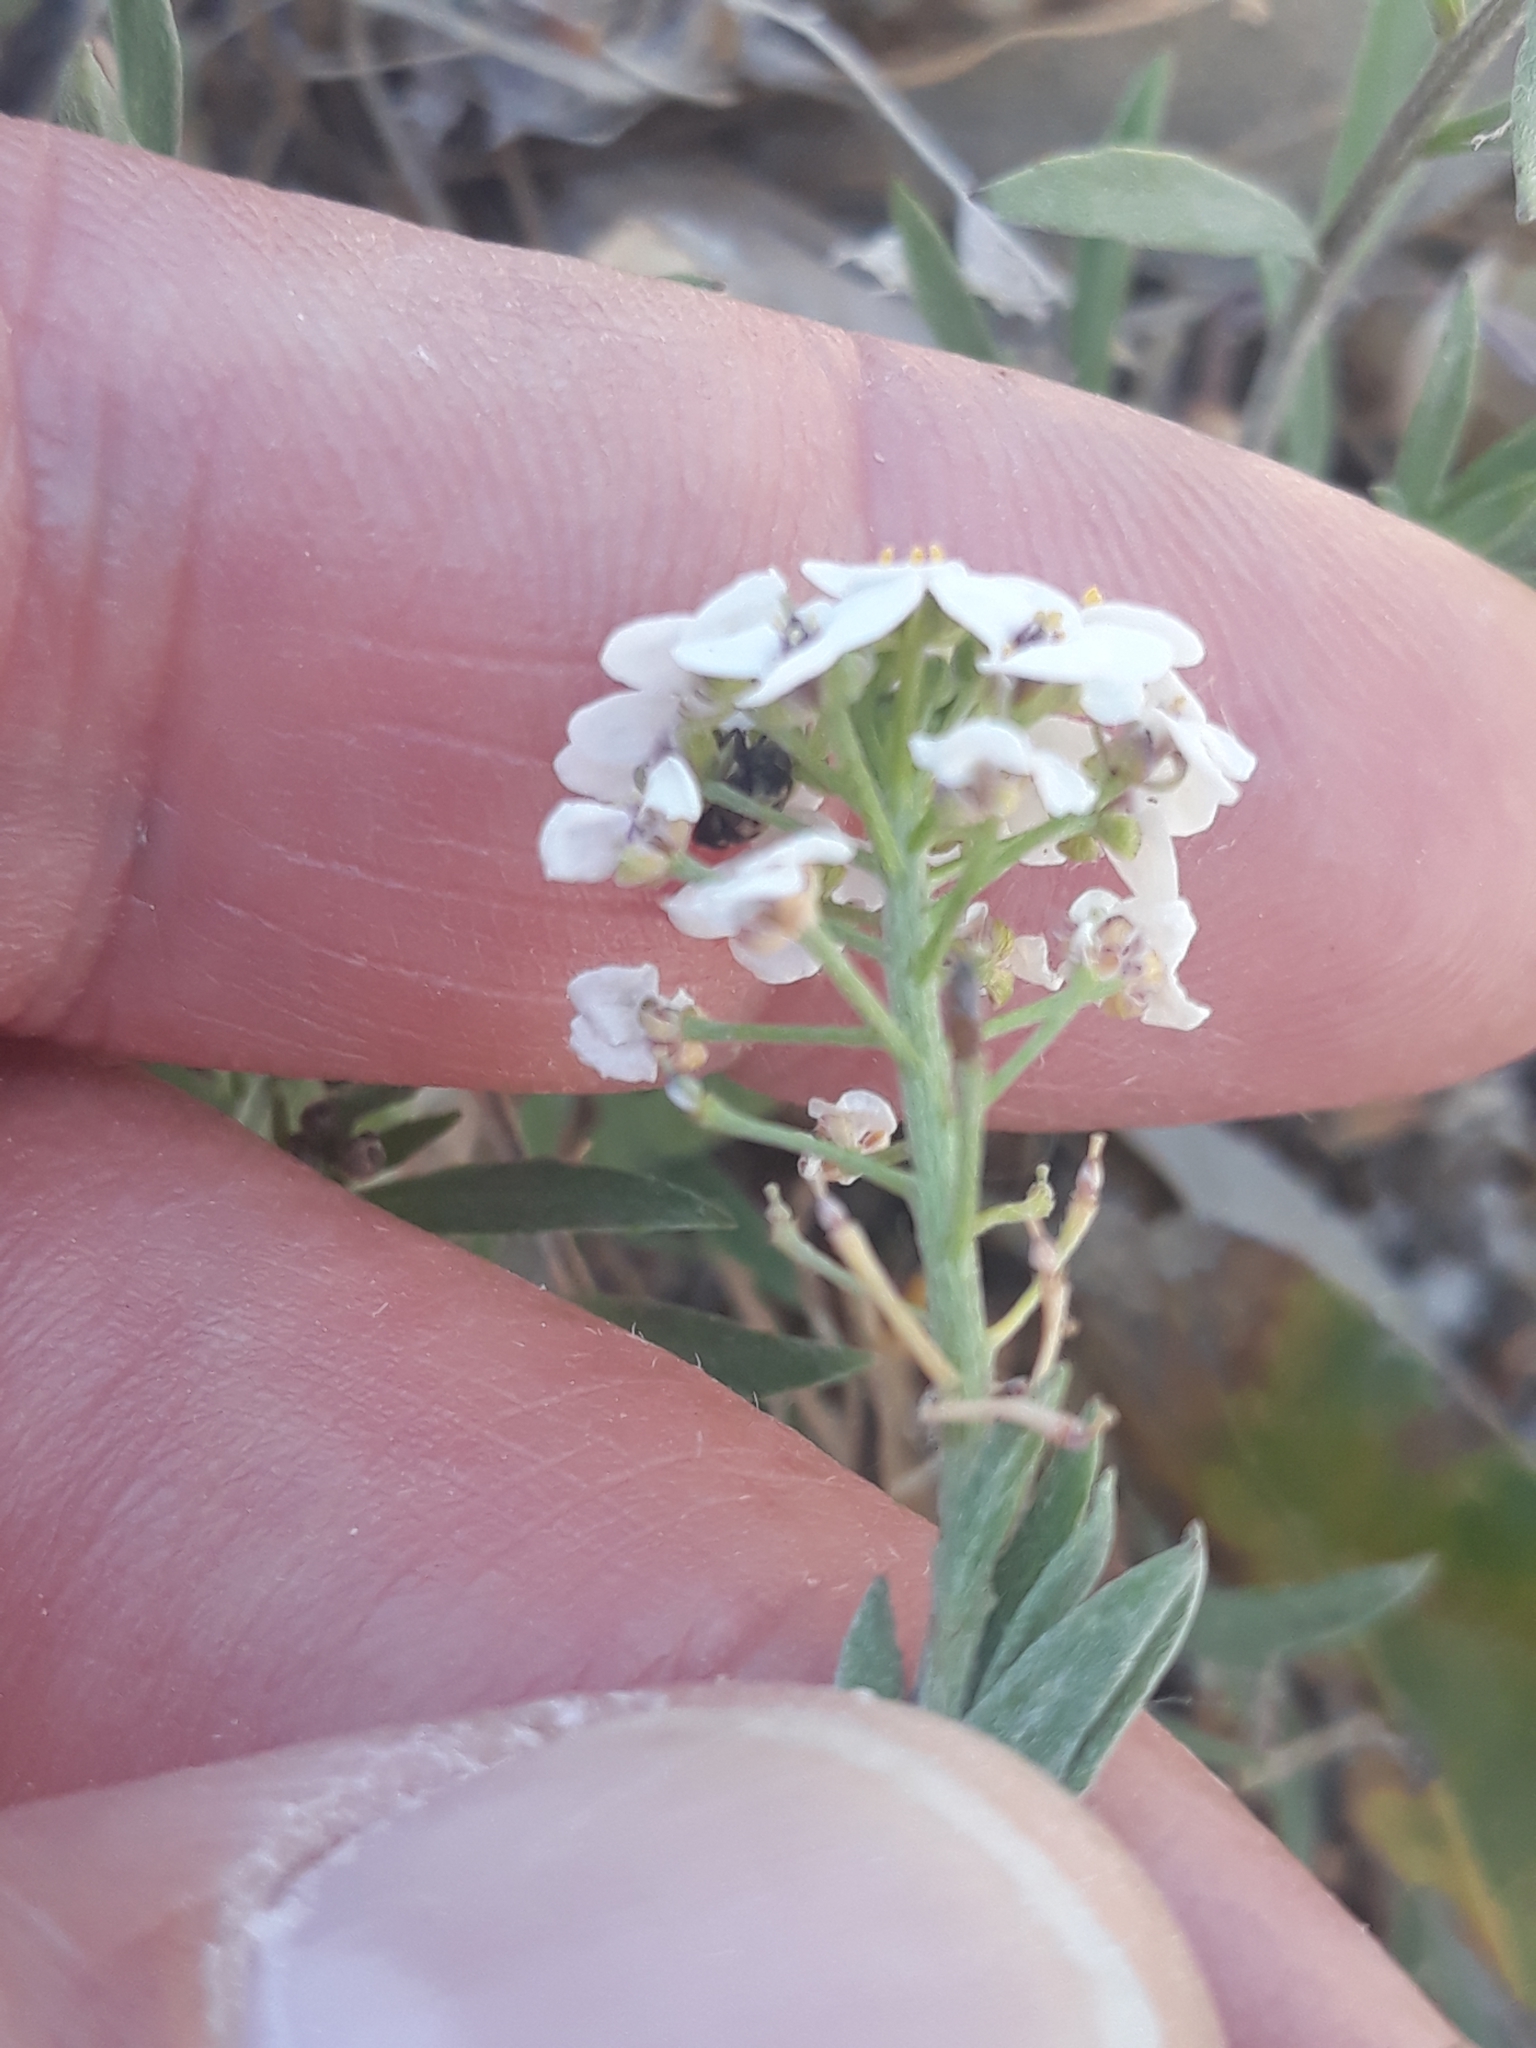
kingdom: Plantae
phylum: Tracheophyta
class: Magnoliopsida
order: Brassicales
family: Brassicaceae
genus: Lobularia
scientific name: Lobularia maritima
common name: Sweet alison
